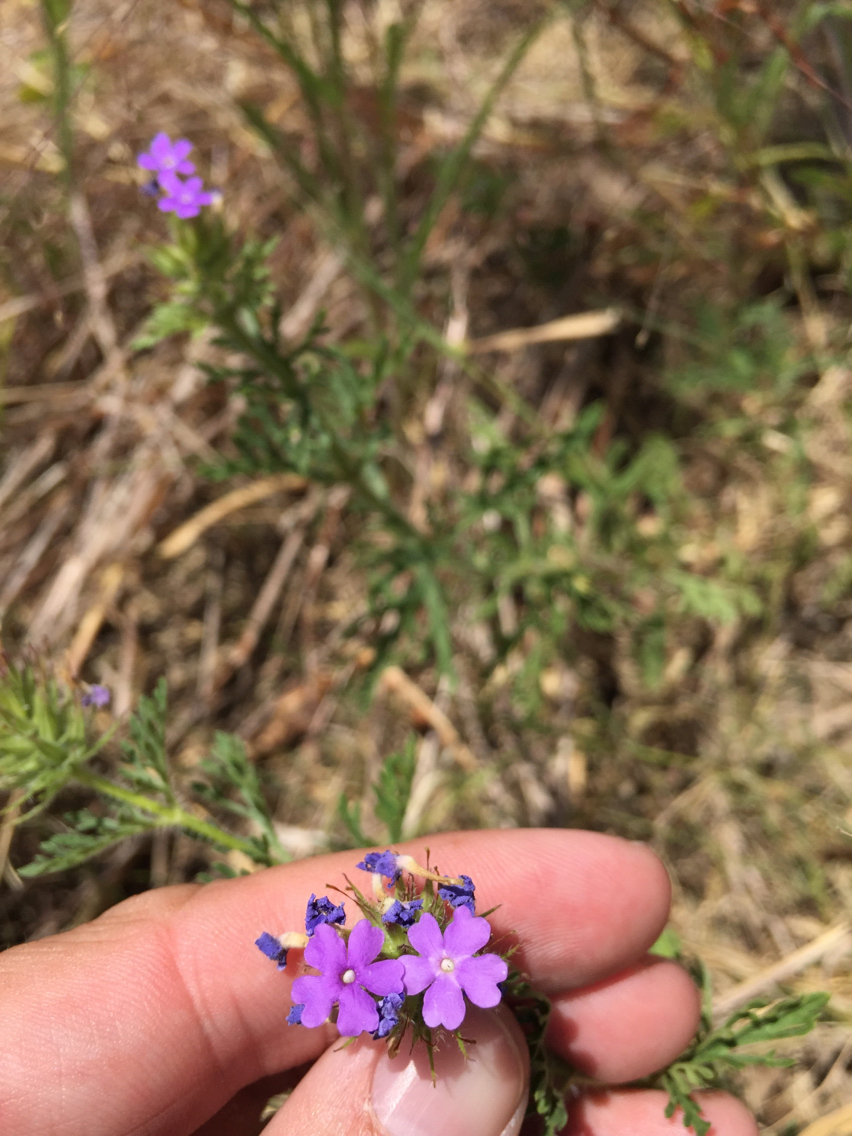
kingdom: Plantae
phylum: Tracheophyta
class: Magnoliopsida
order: Lamiales
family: Verbenaceae
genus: Verbena
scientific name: Verbena bipinnatifida
